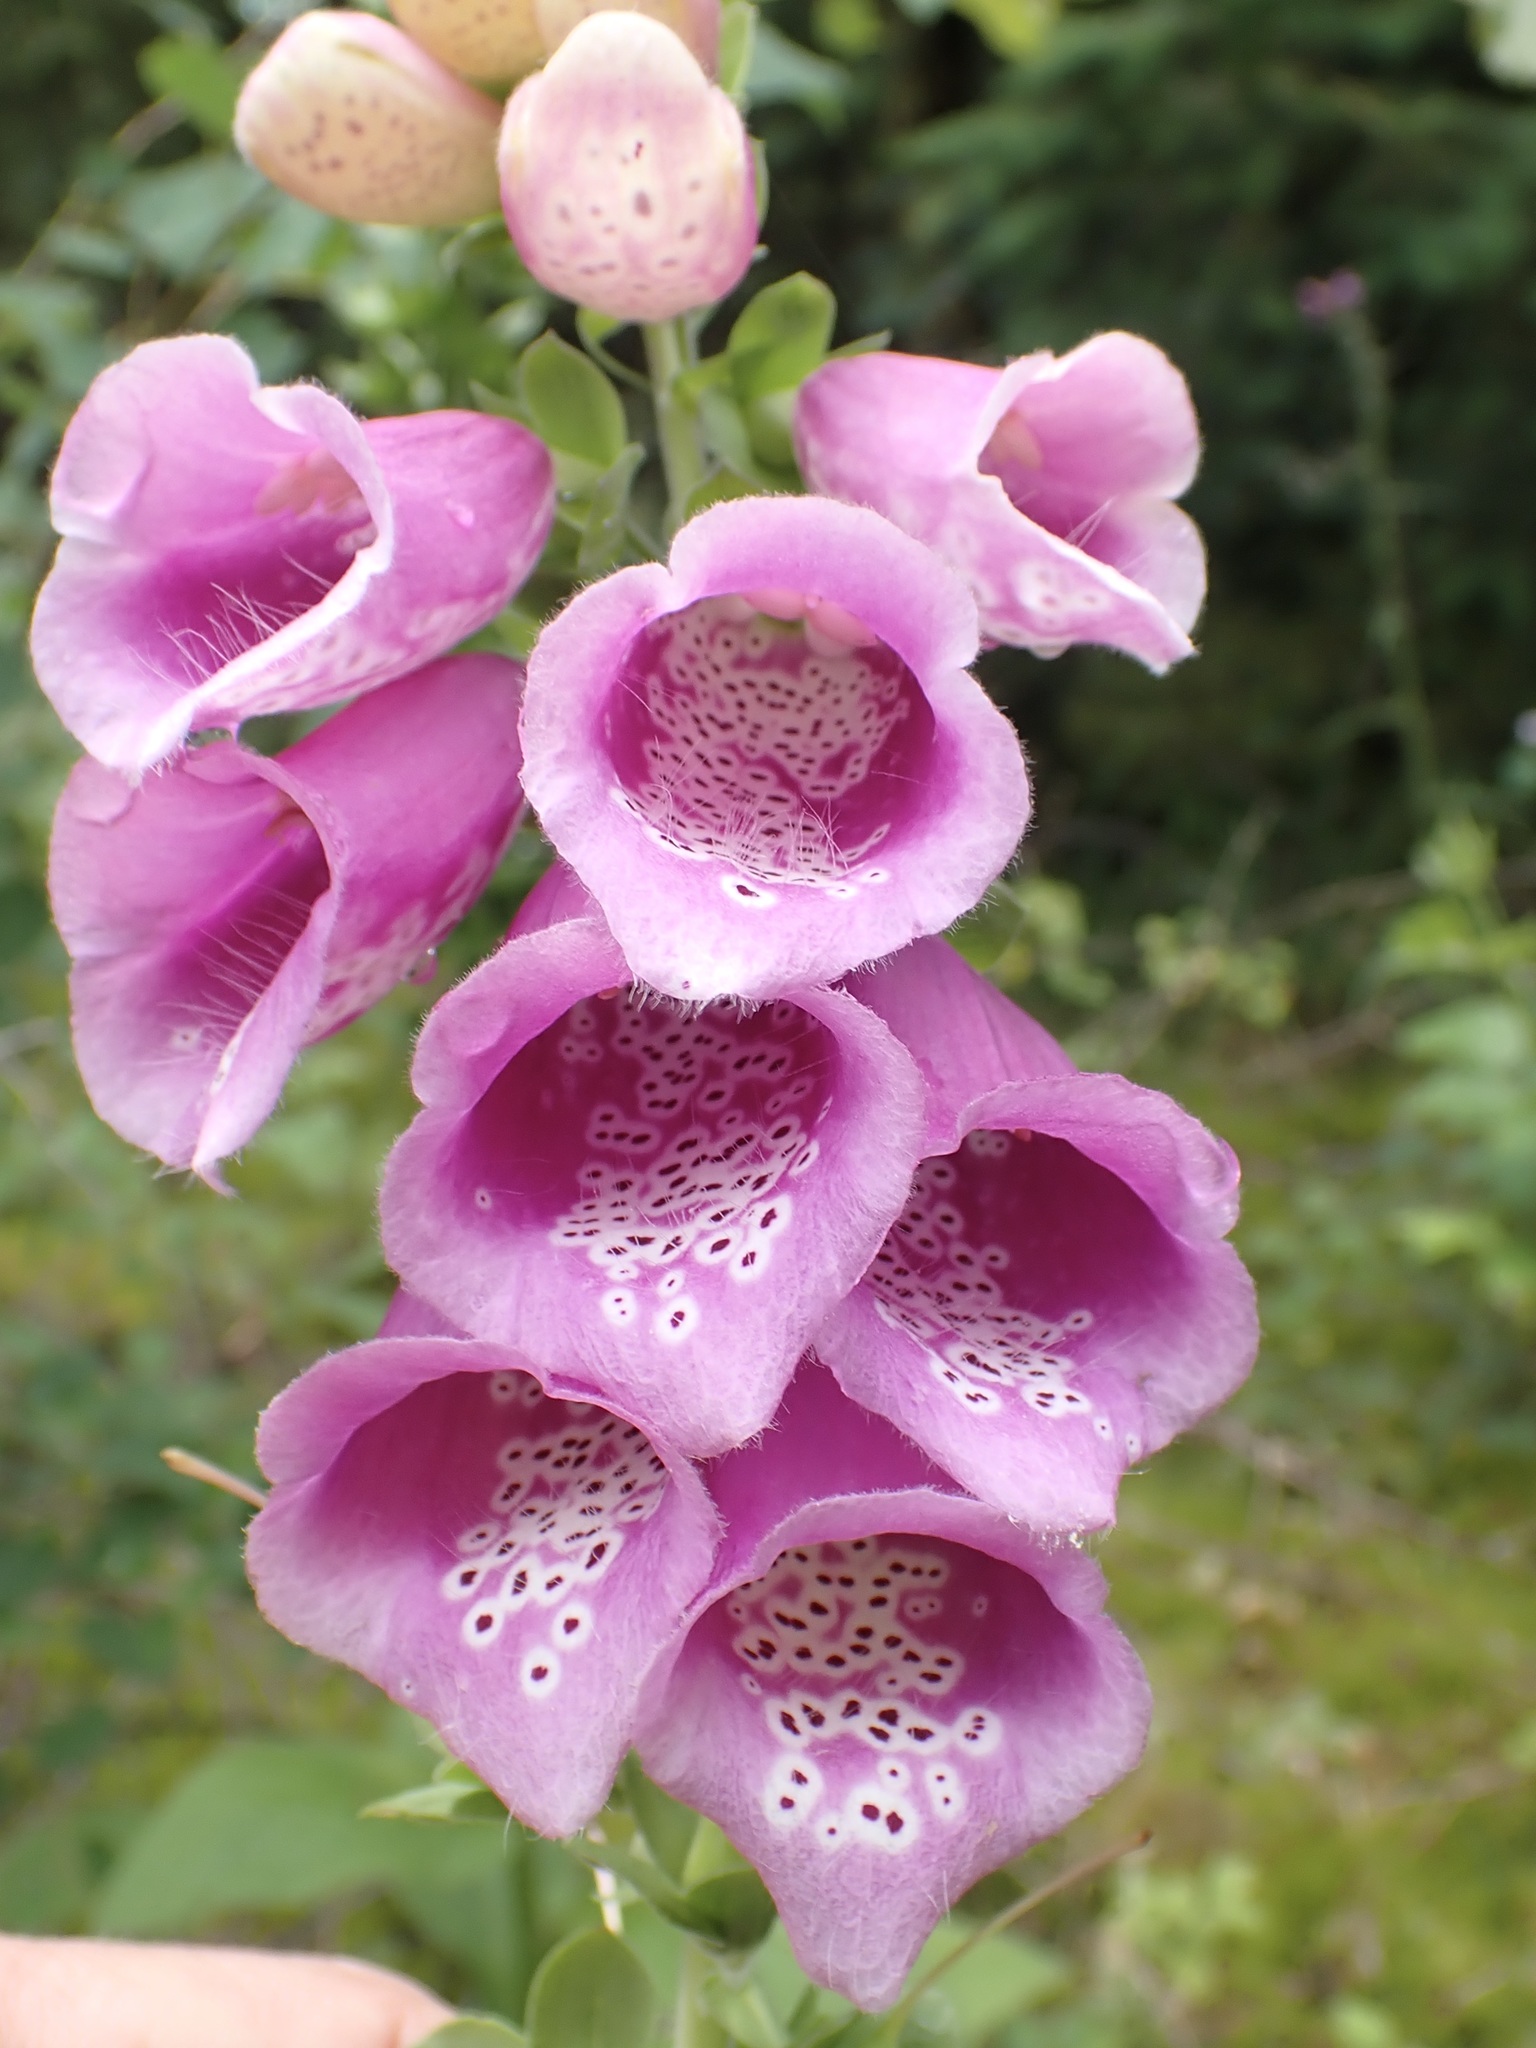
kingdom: Plantae
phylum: Tracheophyta
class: Magnoliopsida
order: Lamiales
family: Plantaginaceae
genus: Digitalis
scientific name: Digitalis purpurea
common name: Foxglove
